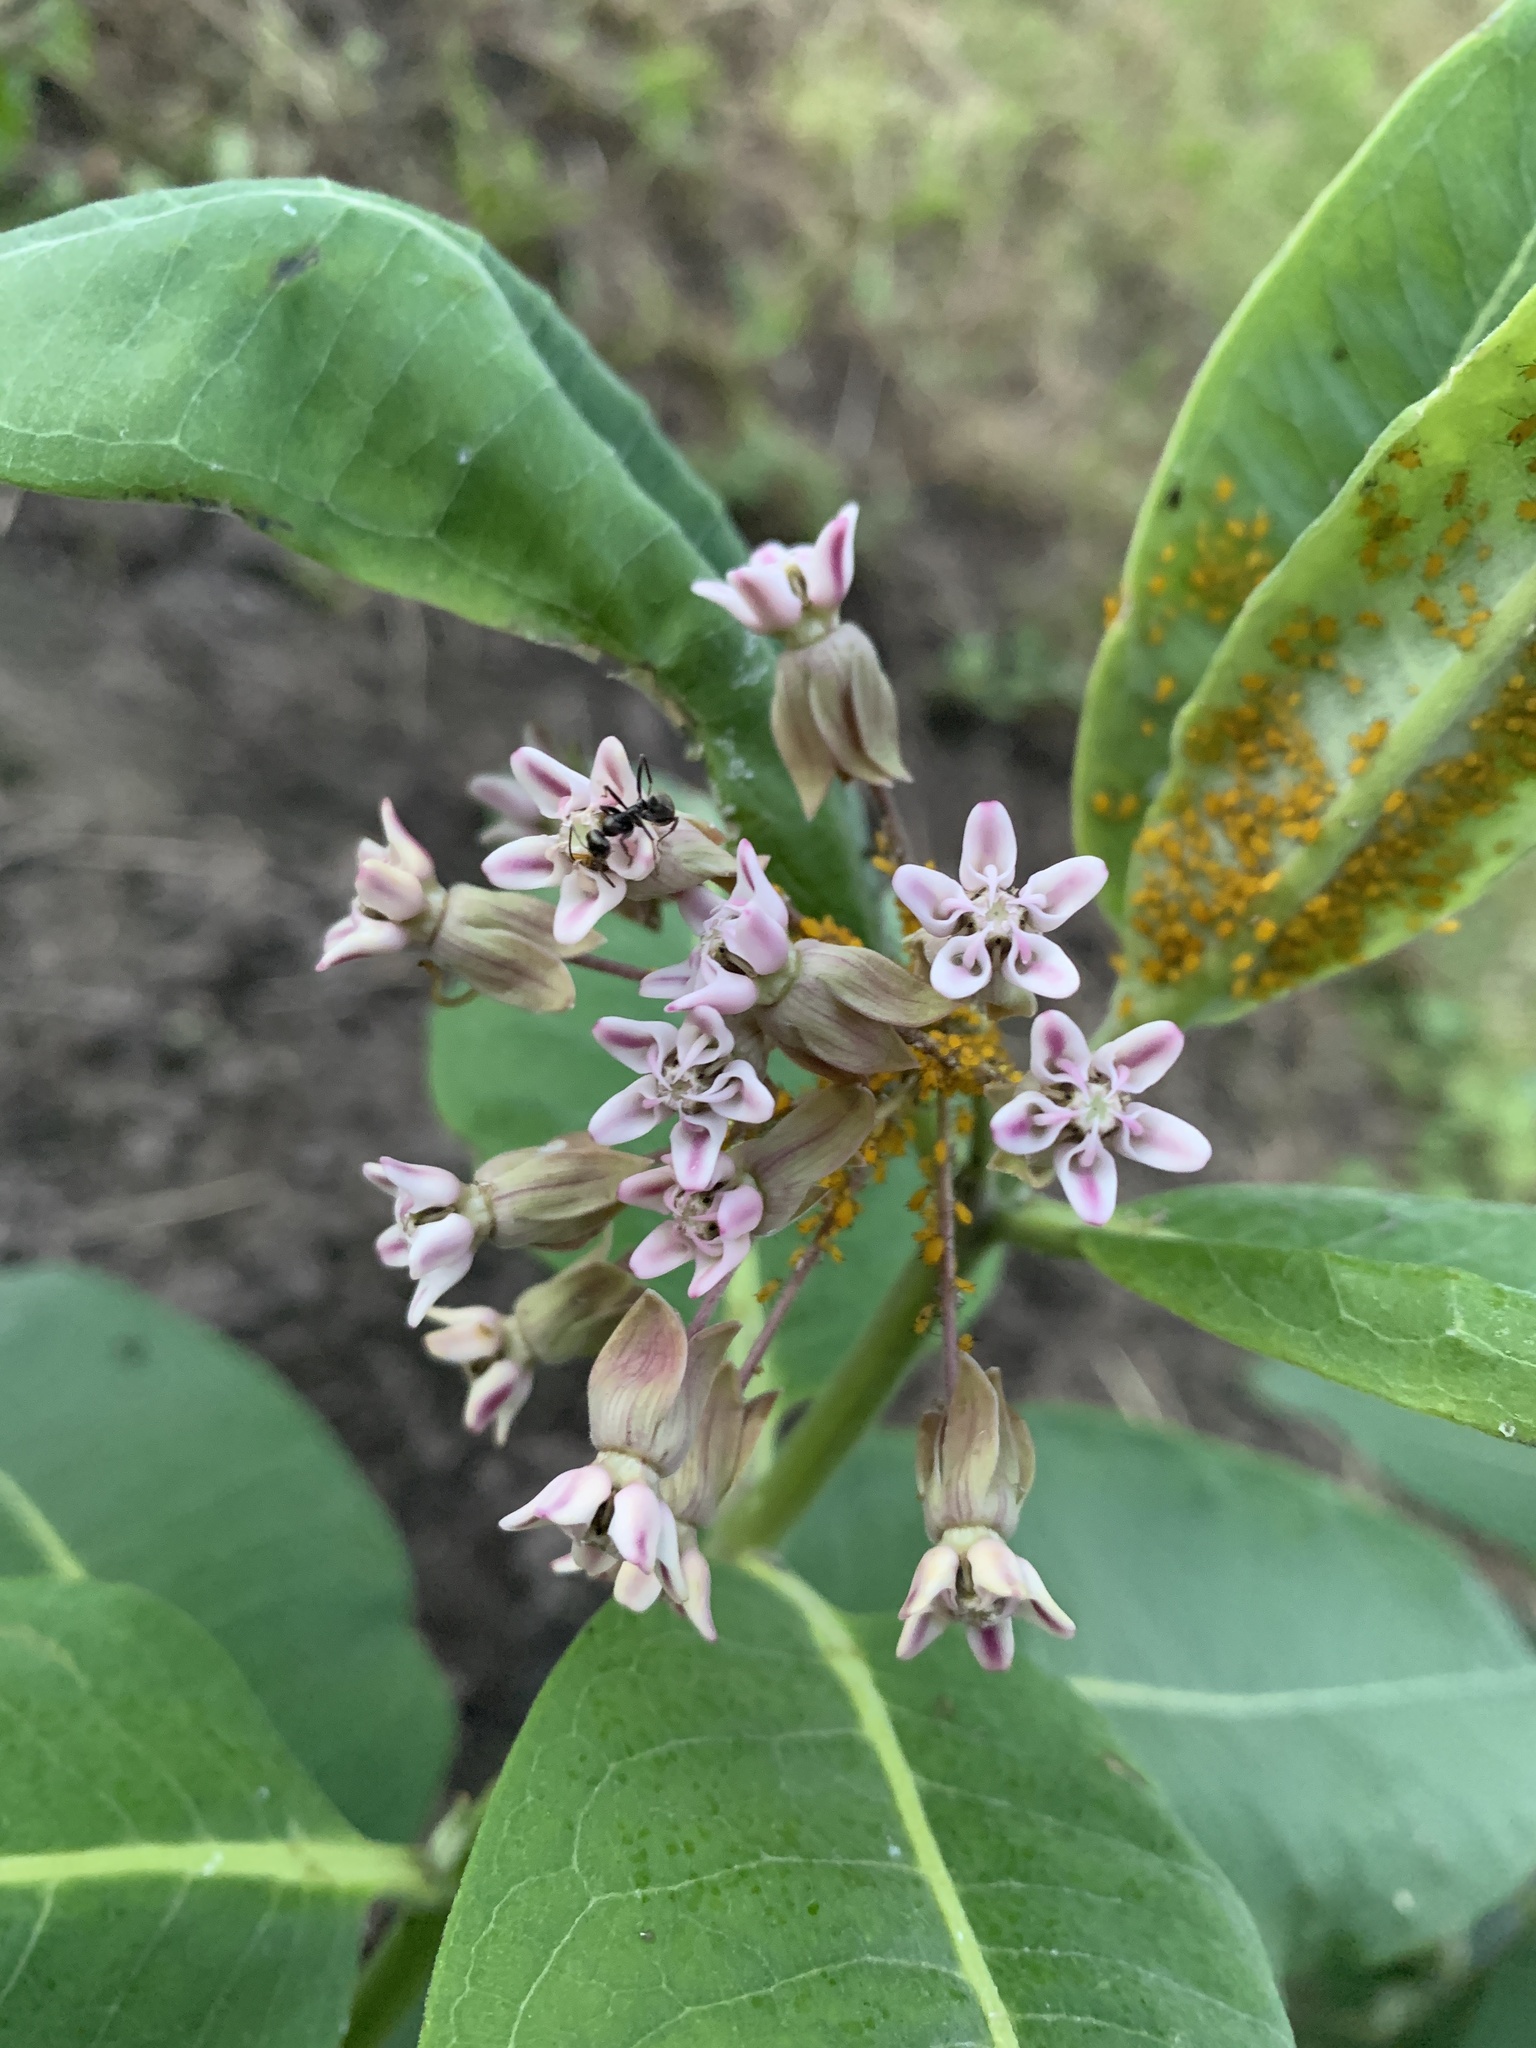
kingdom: Animalia
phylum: Arthropoda
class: Insecta
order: Hemiptera
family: Aphididae
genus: Aphis
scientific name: Aphis nerii
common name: Oleander aphid
